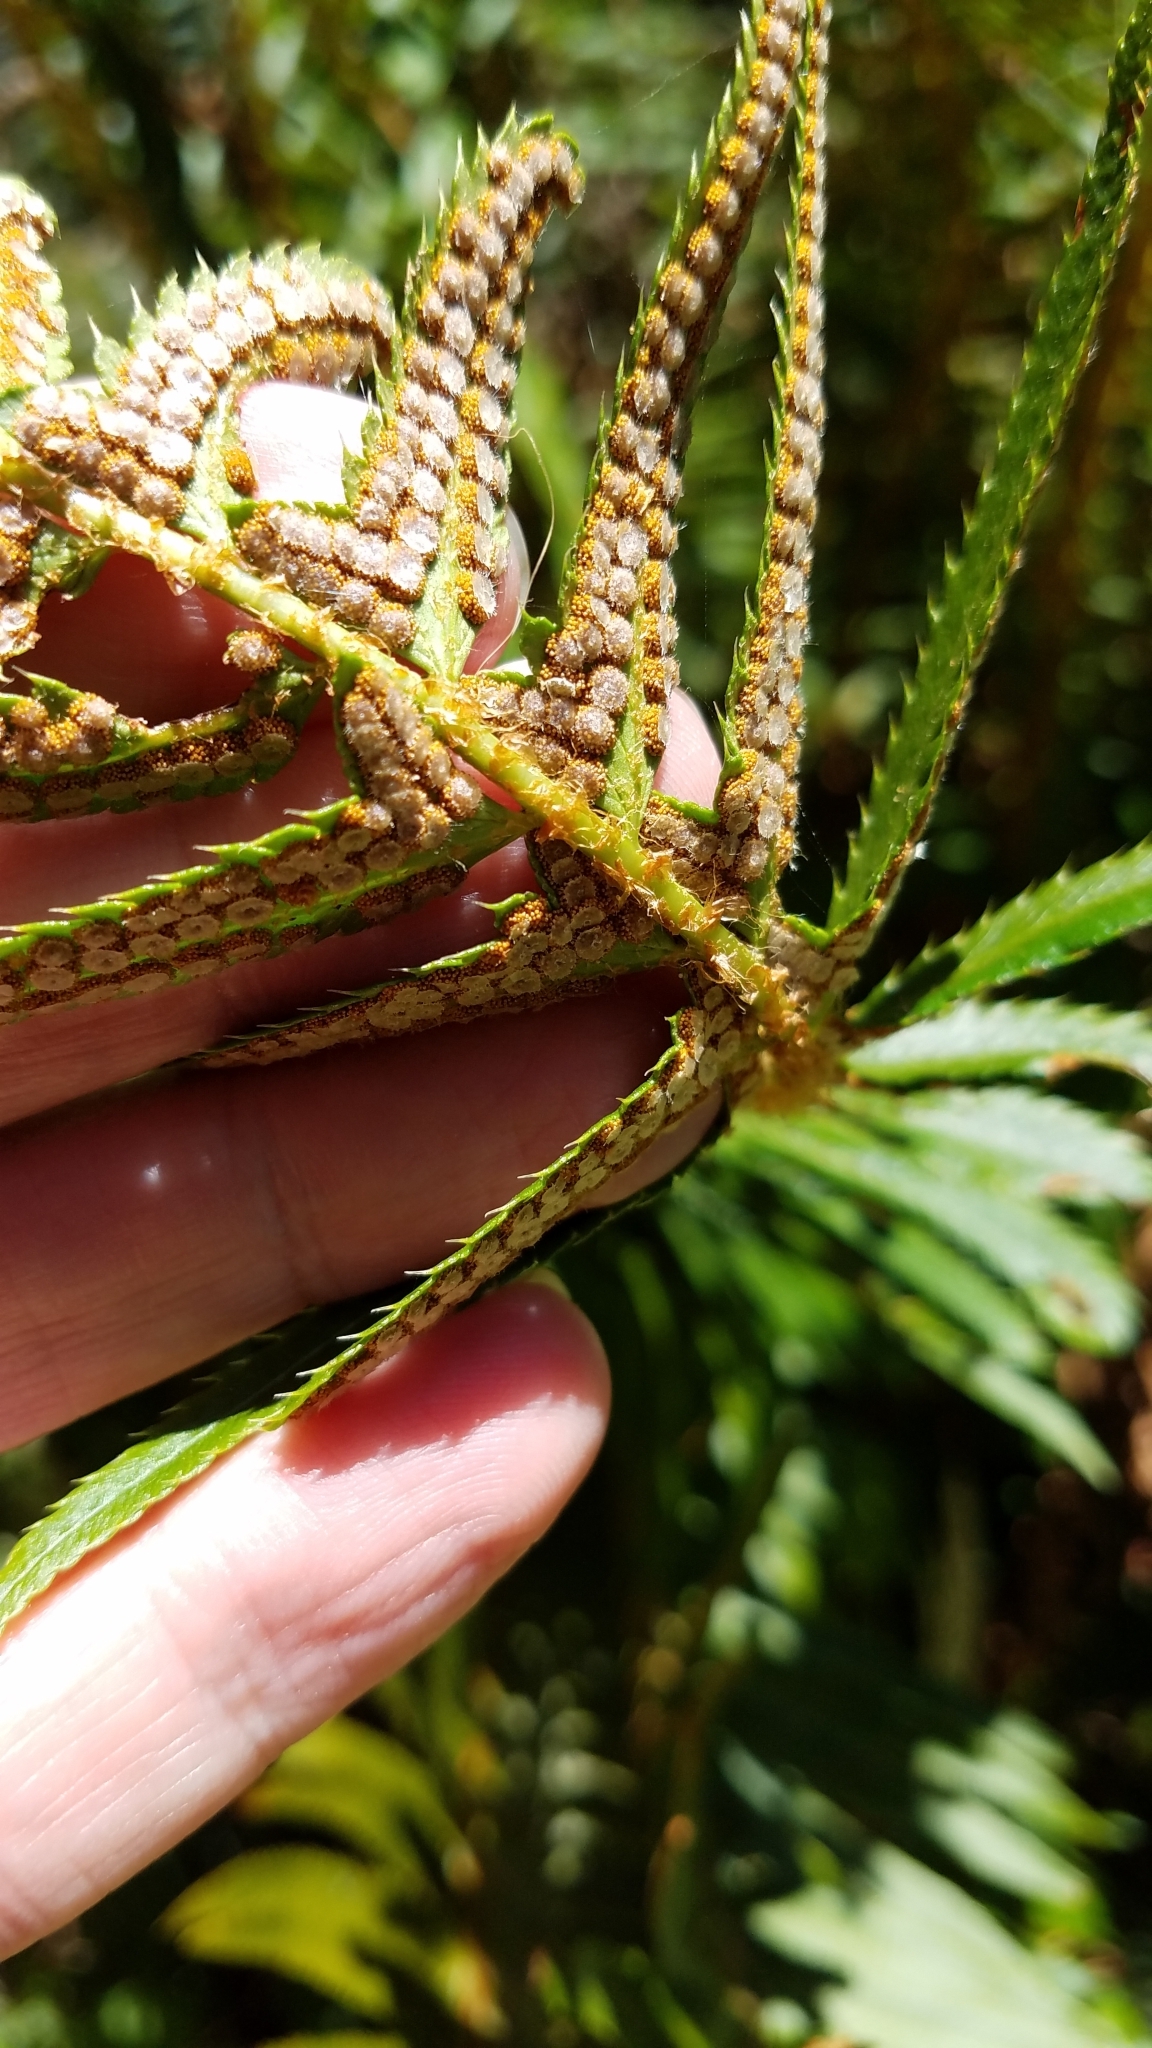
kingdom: Plantae
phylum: Tracheophyta
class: Polypodiopsida
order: Polypodiales
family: Dryopteridaceae
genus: Polystichum
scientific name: Polystichum munitum
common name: Western sword-fern
